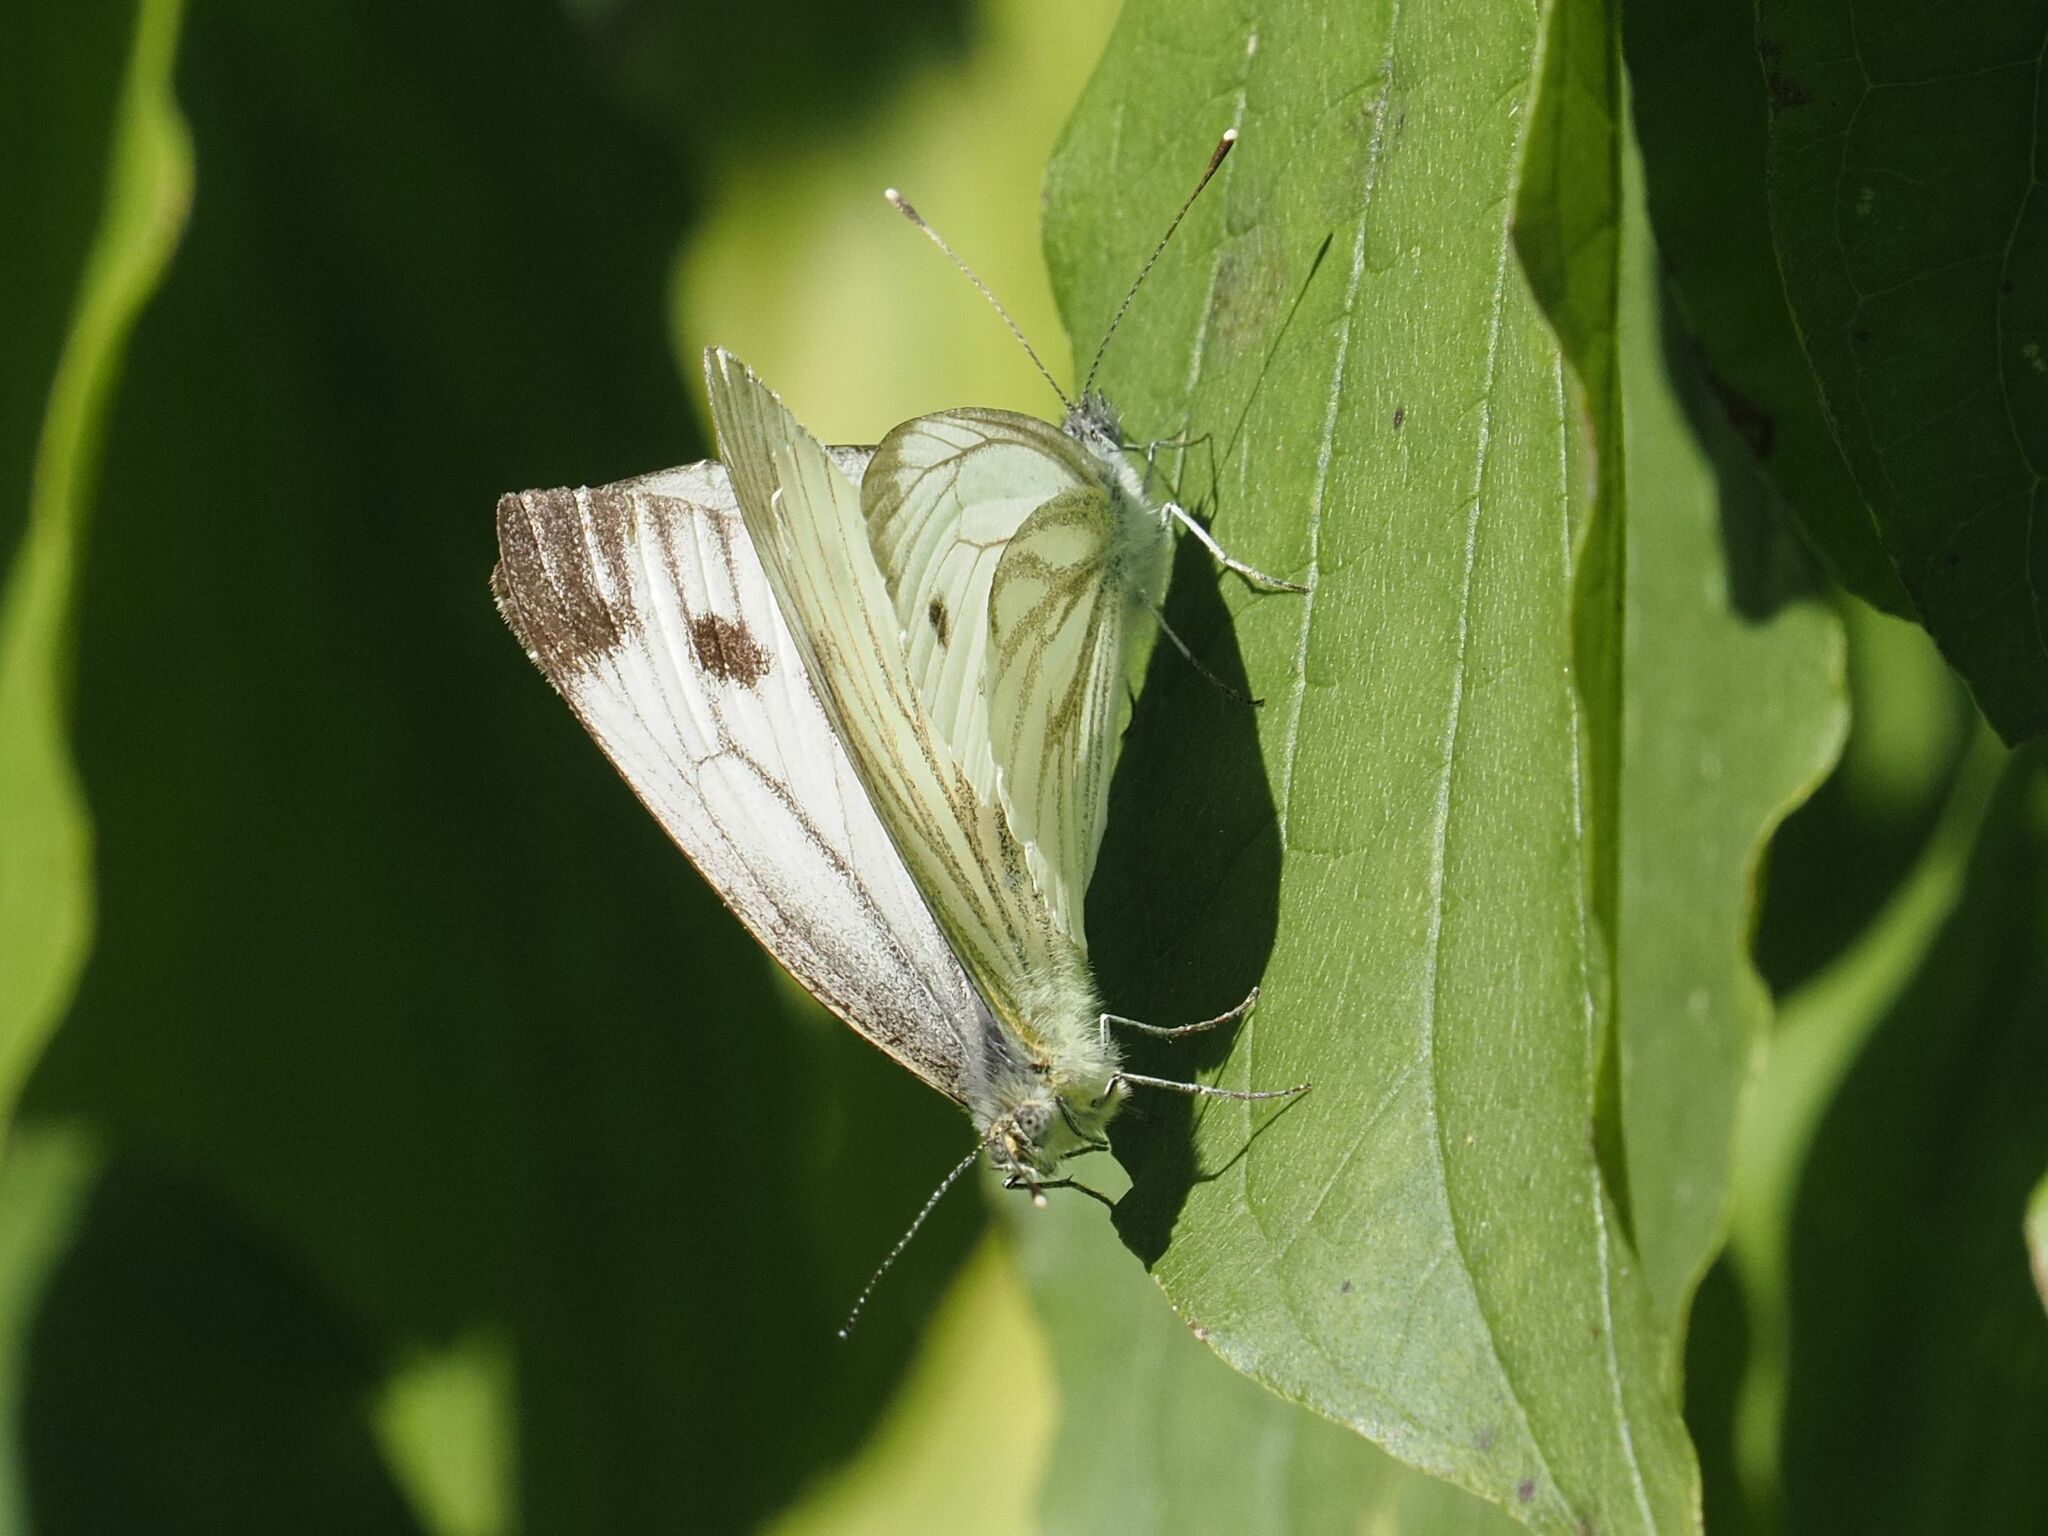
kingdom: Animalia
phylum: Arthropoda
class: Insecta
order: Lepidoptera
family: Pieridae
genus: Pieris
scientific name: Pieris napi
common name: Green-veined white
